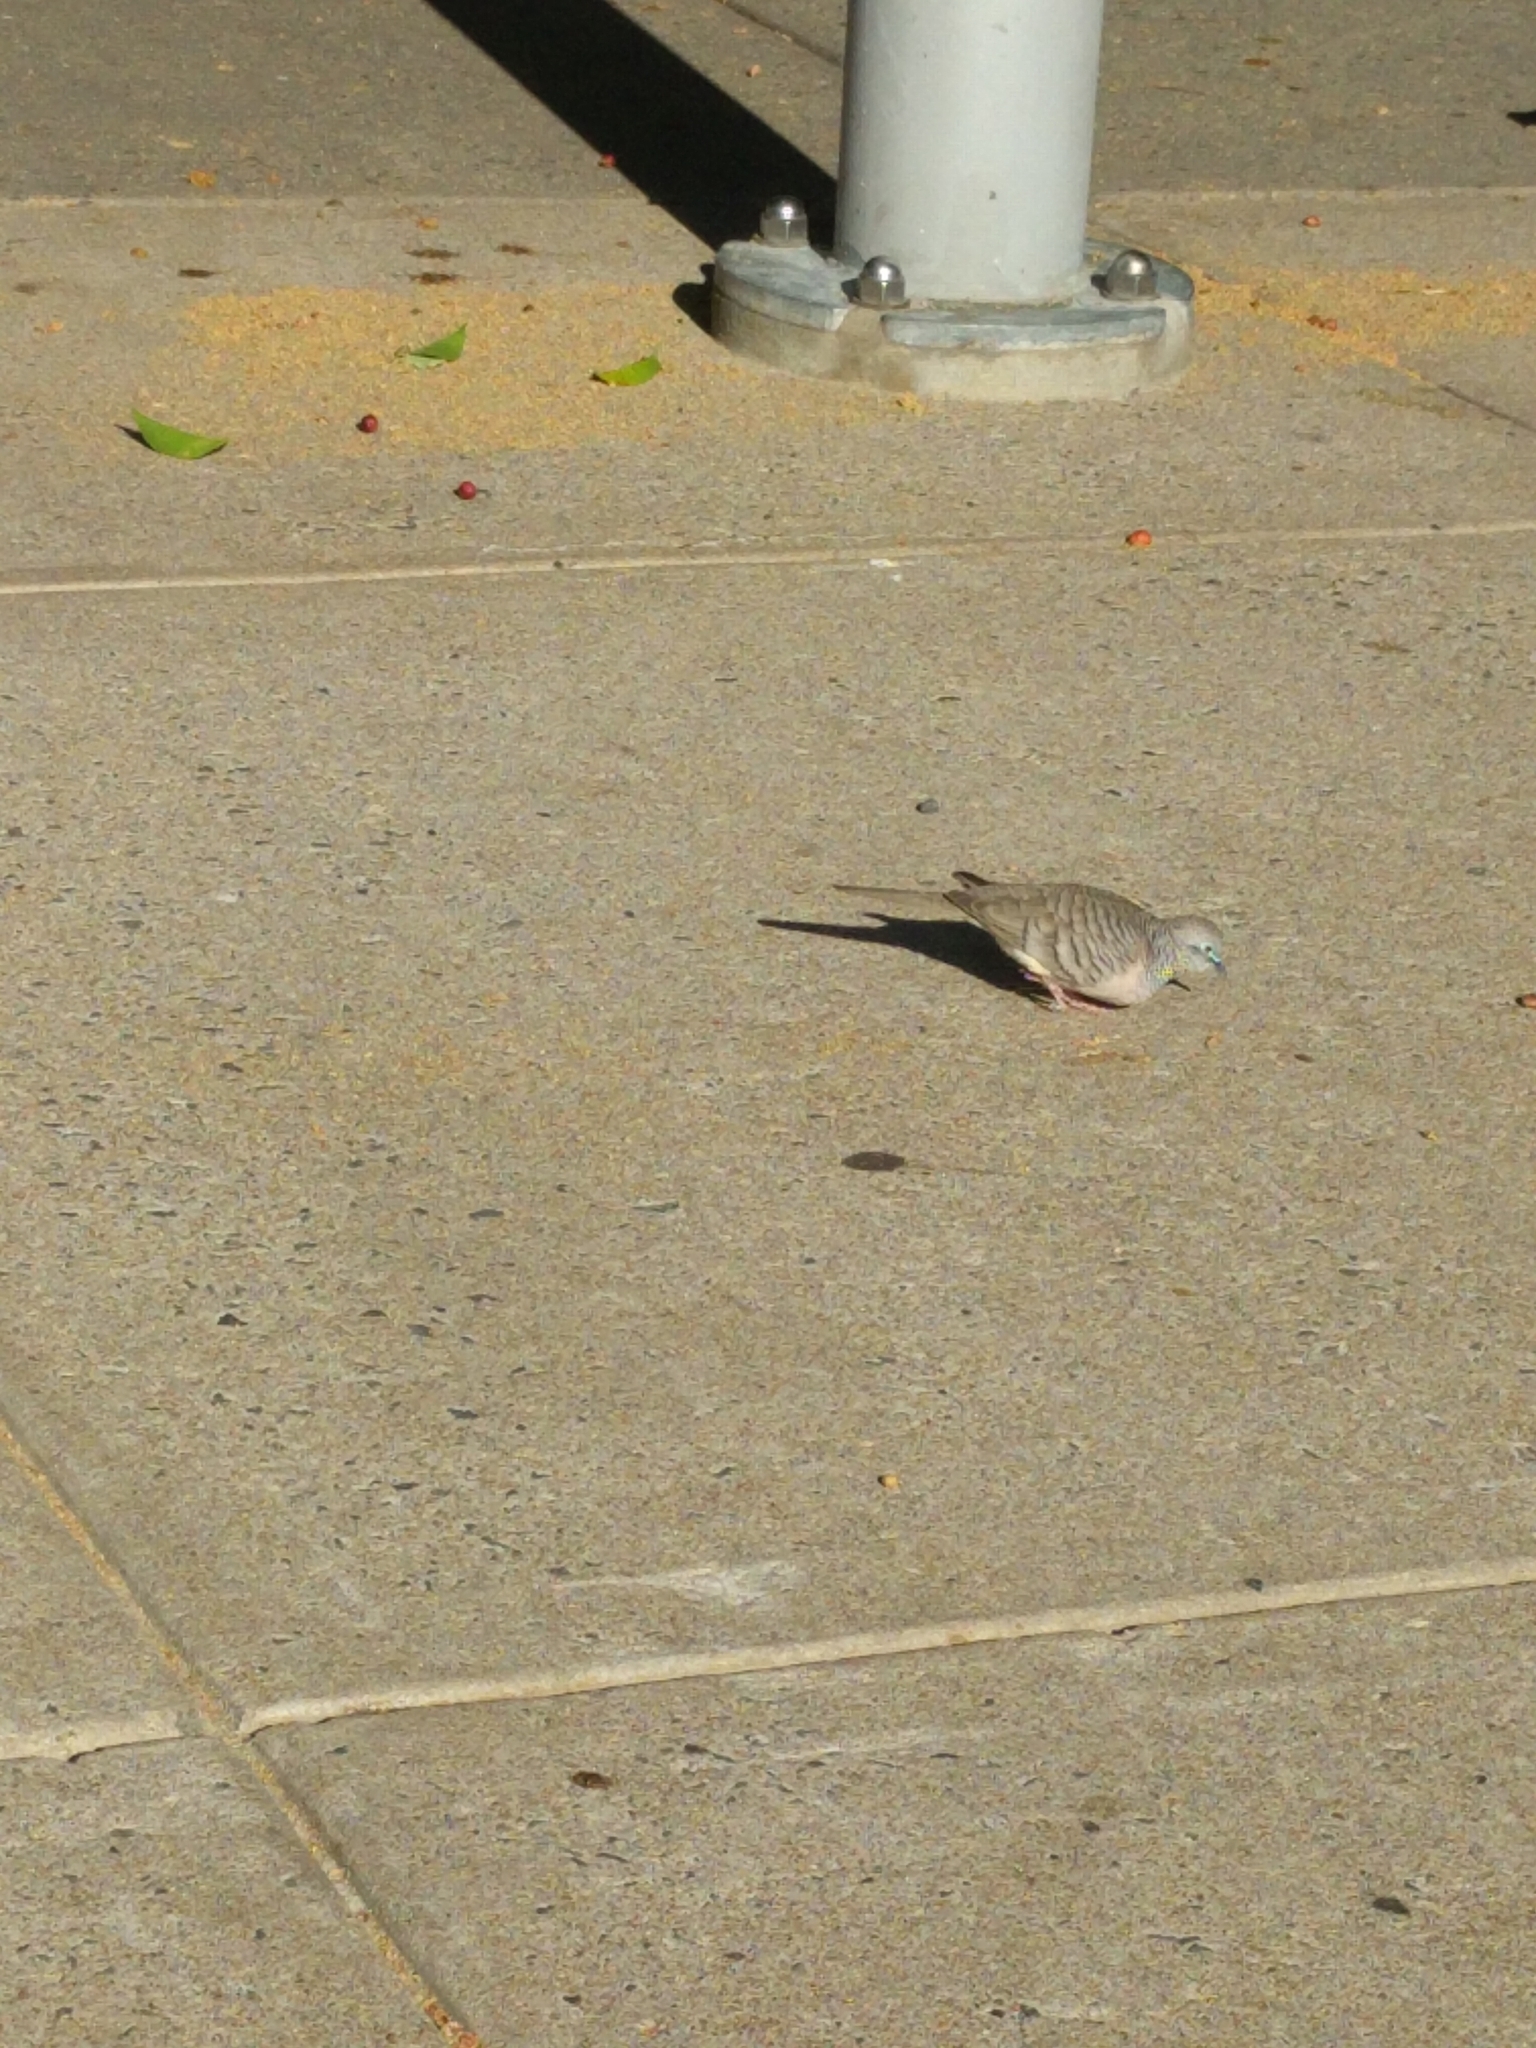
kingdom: Animalia
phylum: Chordata
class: Aves
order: Columbiformes
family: Columbidae
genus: Geopelia
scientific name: Geopelia placida
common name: Peaceful dove
